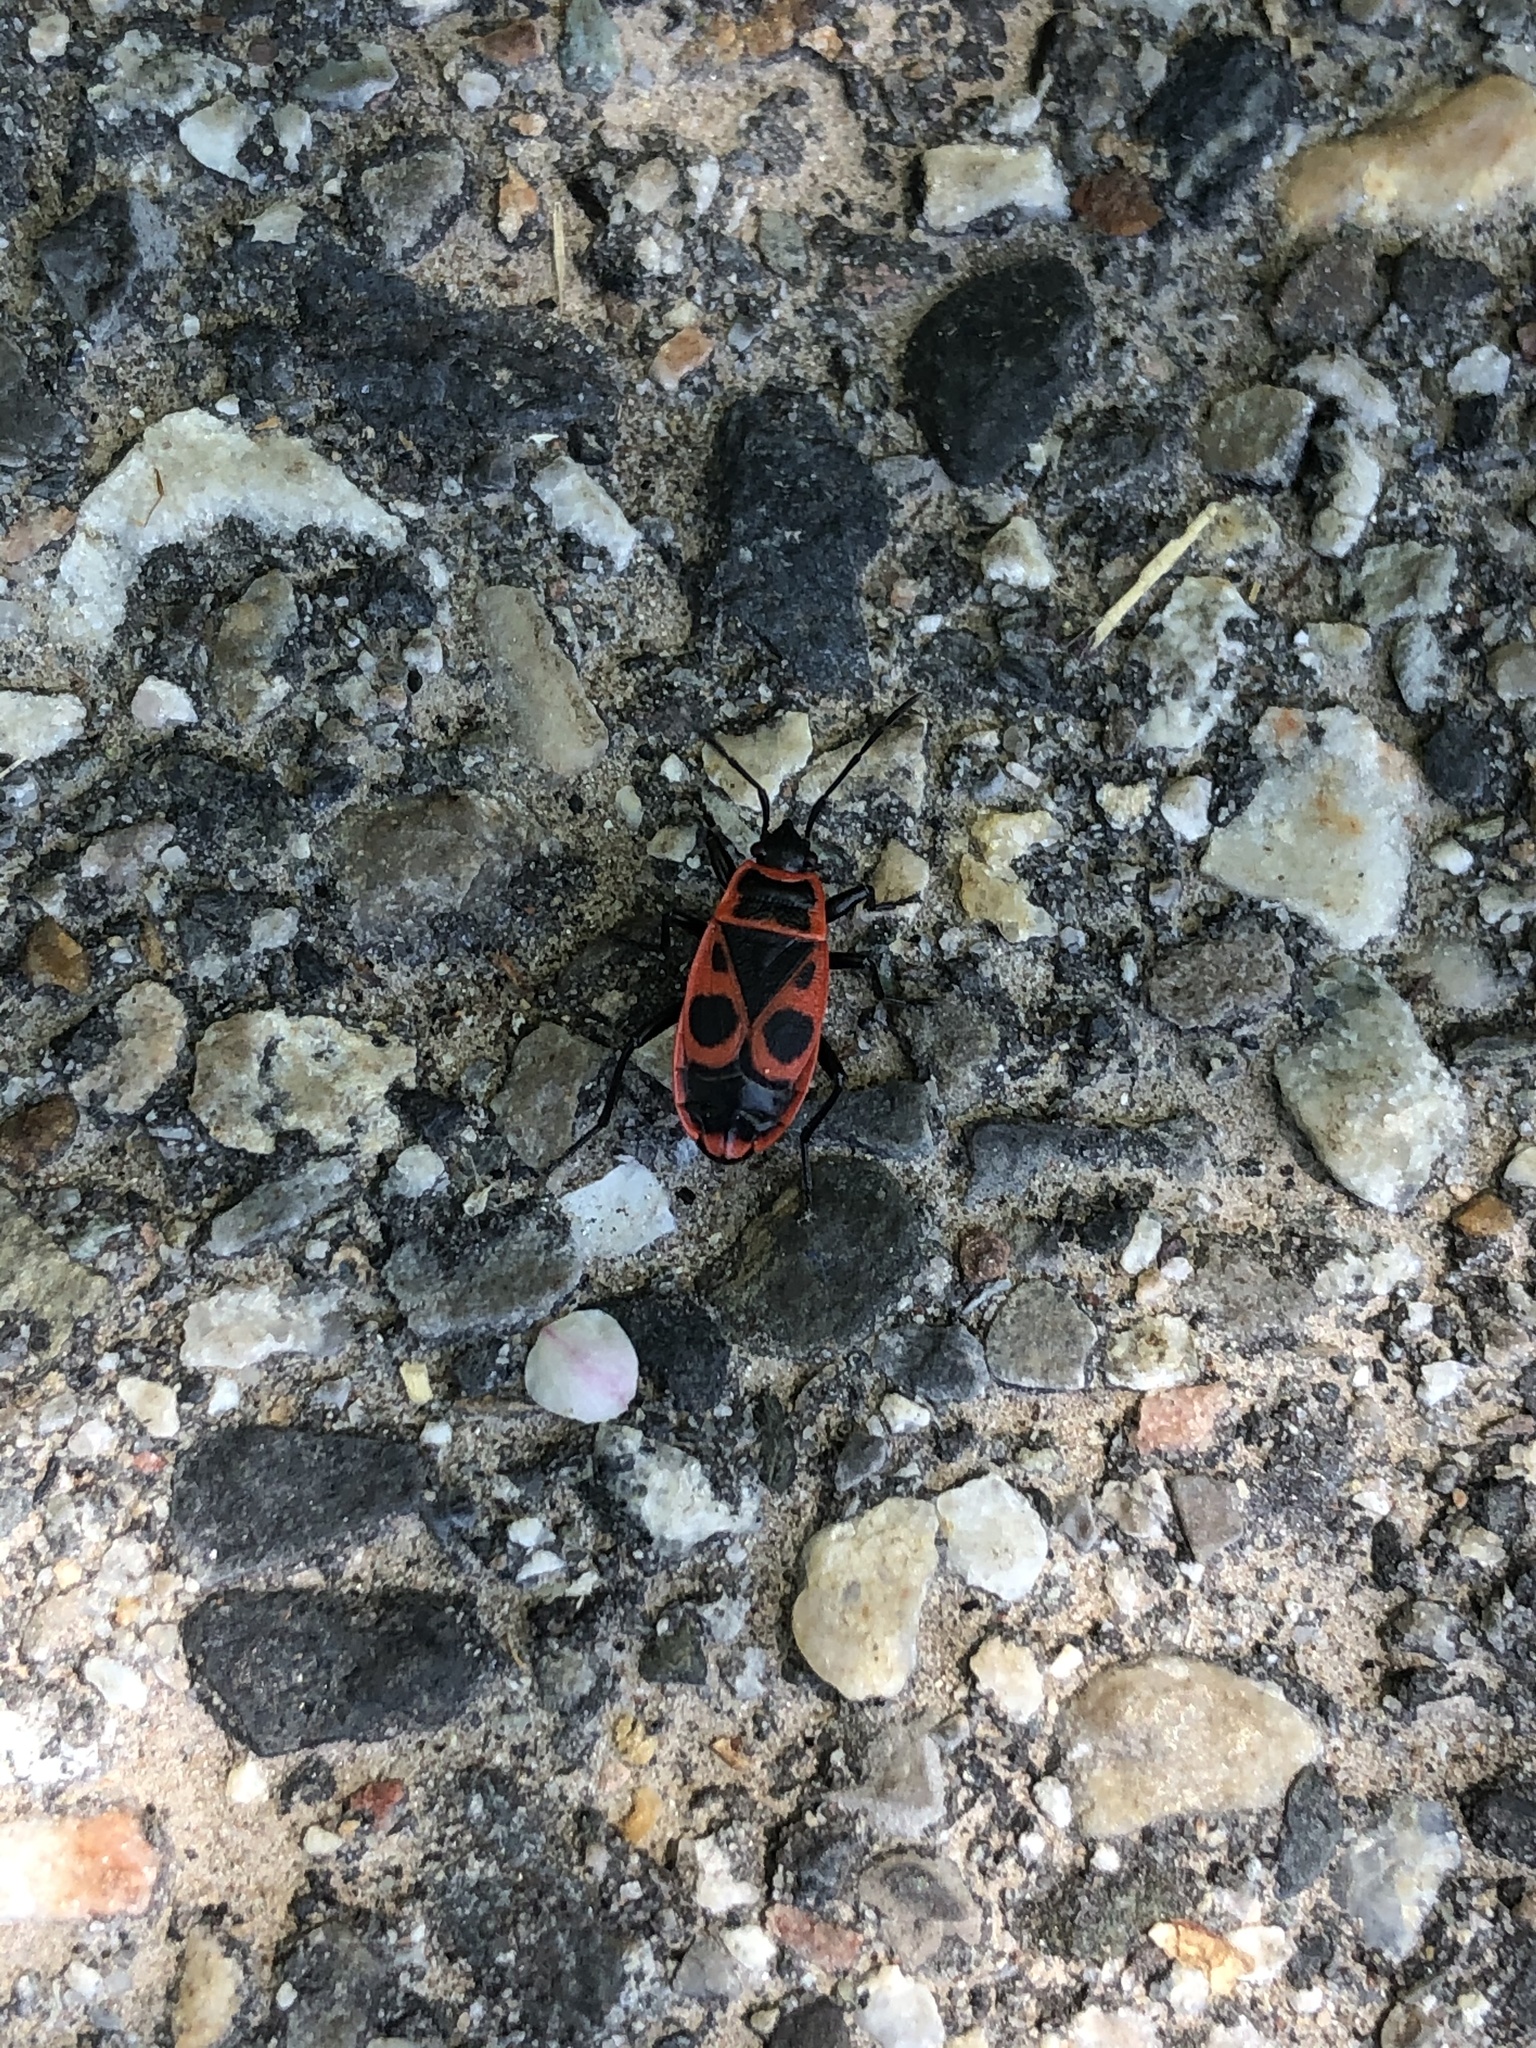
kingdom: Animalia
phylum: Arthropoda
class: Insecta
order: Hemiptera
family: Pyrrhocoridae
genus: Pyrrhocoris
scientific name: Pyrrhocoris apterus
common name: Firebug
